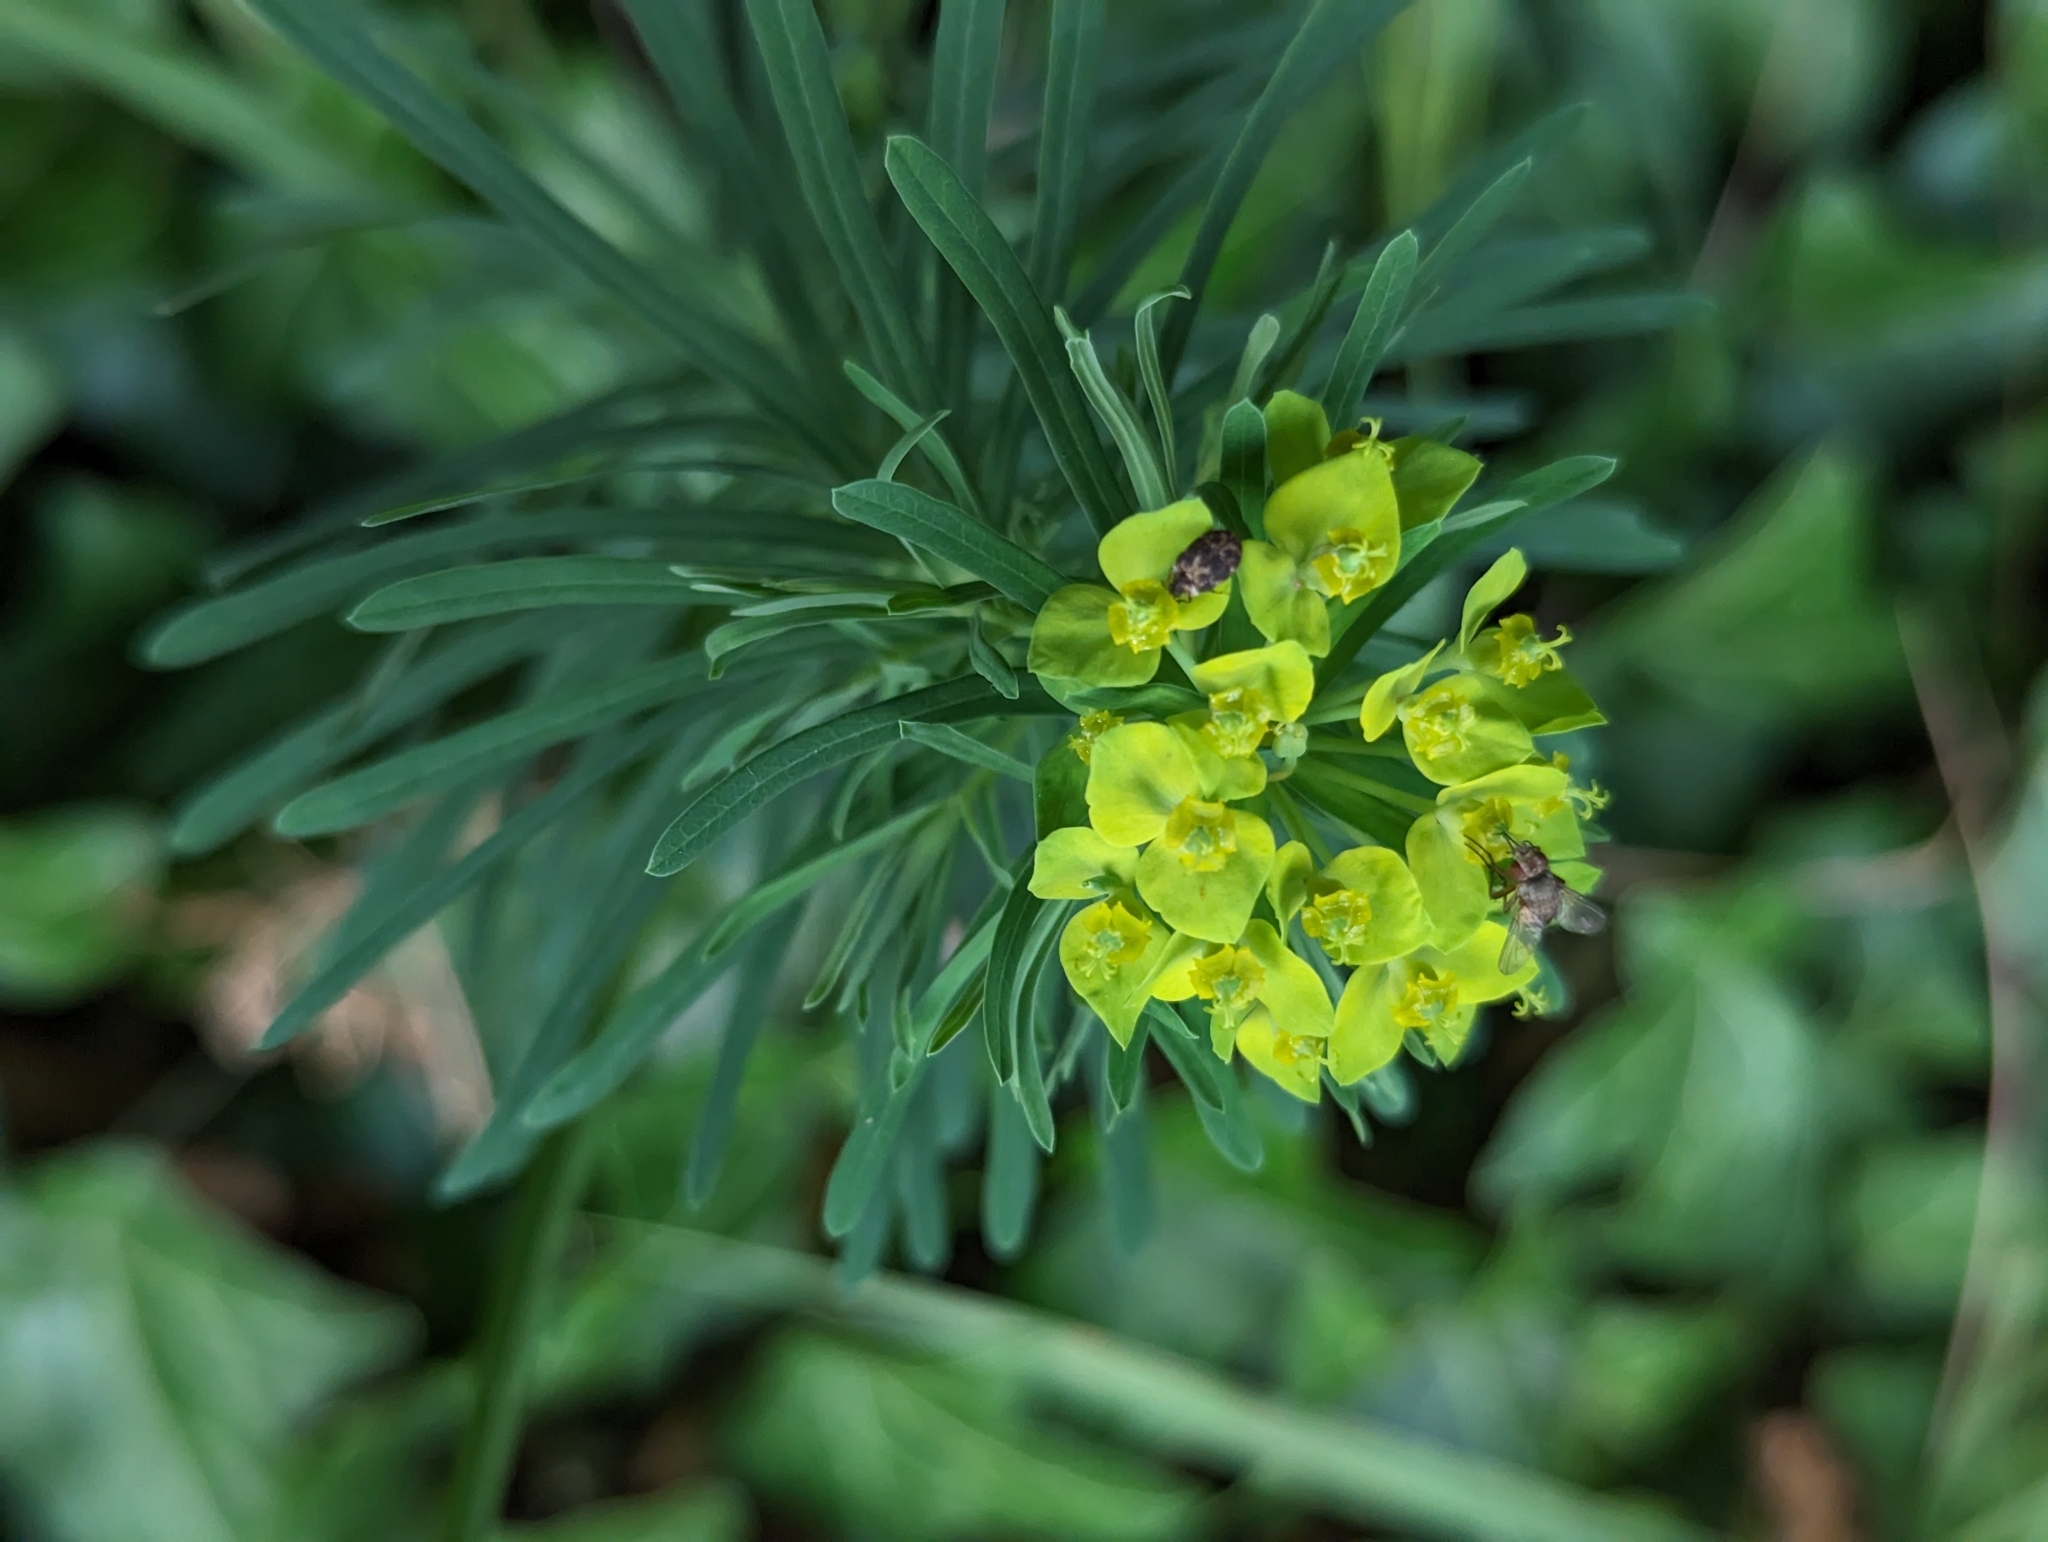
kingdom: Plantae
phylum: Tracheophyta
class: Magnoliopsida
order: Malpighiales
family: Euphorbiaceae
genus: Euphorbia
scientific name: Euphorbia cyparissias
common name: Cypress spurge
